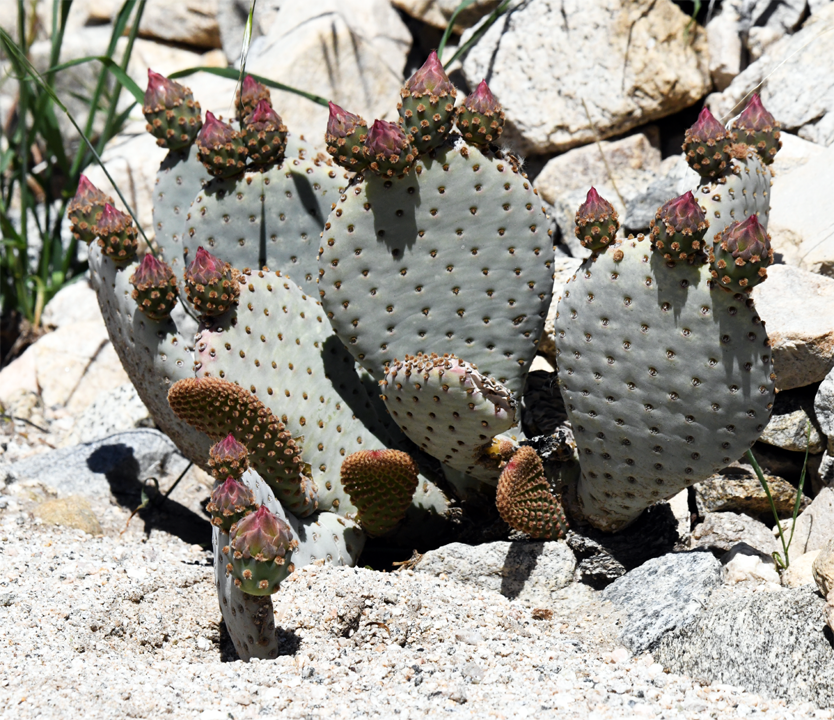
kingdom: Plantae
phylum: Tracheophyta
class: Magnoliopsida
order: Caryophyllales
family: Cactaceae
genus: Opuntia
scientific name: Opuntia basilaris
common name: Beavertail prickly-pear
